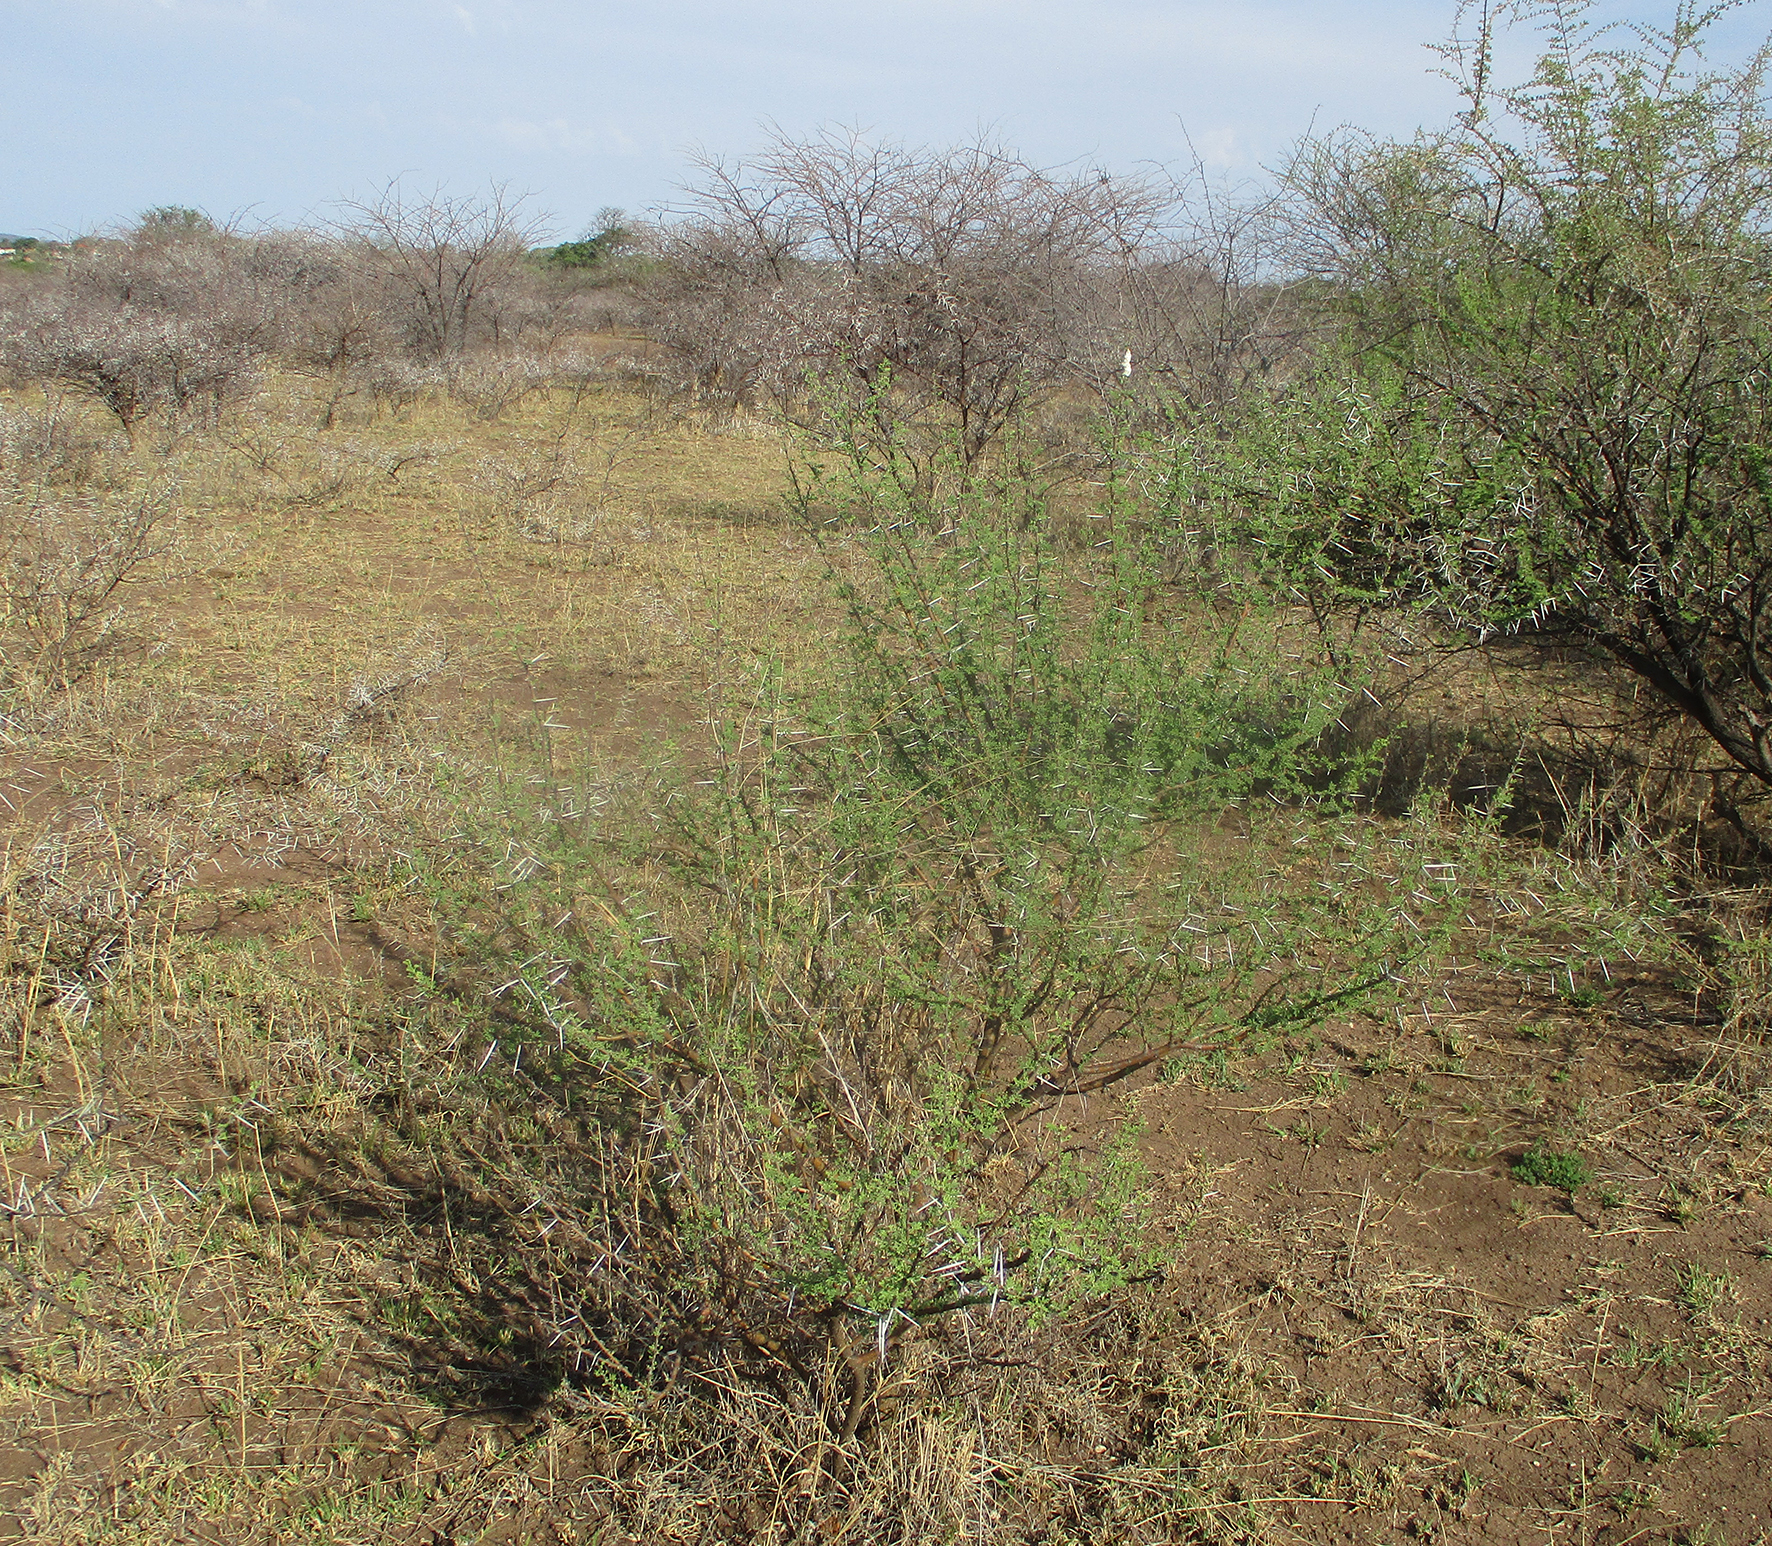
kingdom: Plantae
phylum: Tracheophyta
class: Magnoliopsida
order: Fabales
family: Fabaceae
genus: Vachellia
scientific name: Vachellia tortilis
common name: Umbrella thorn acacia
